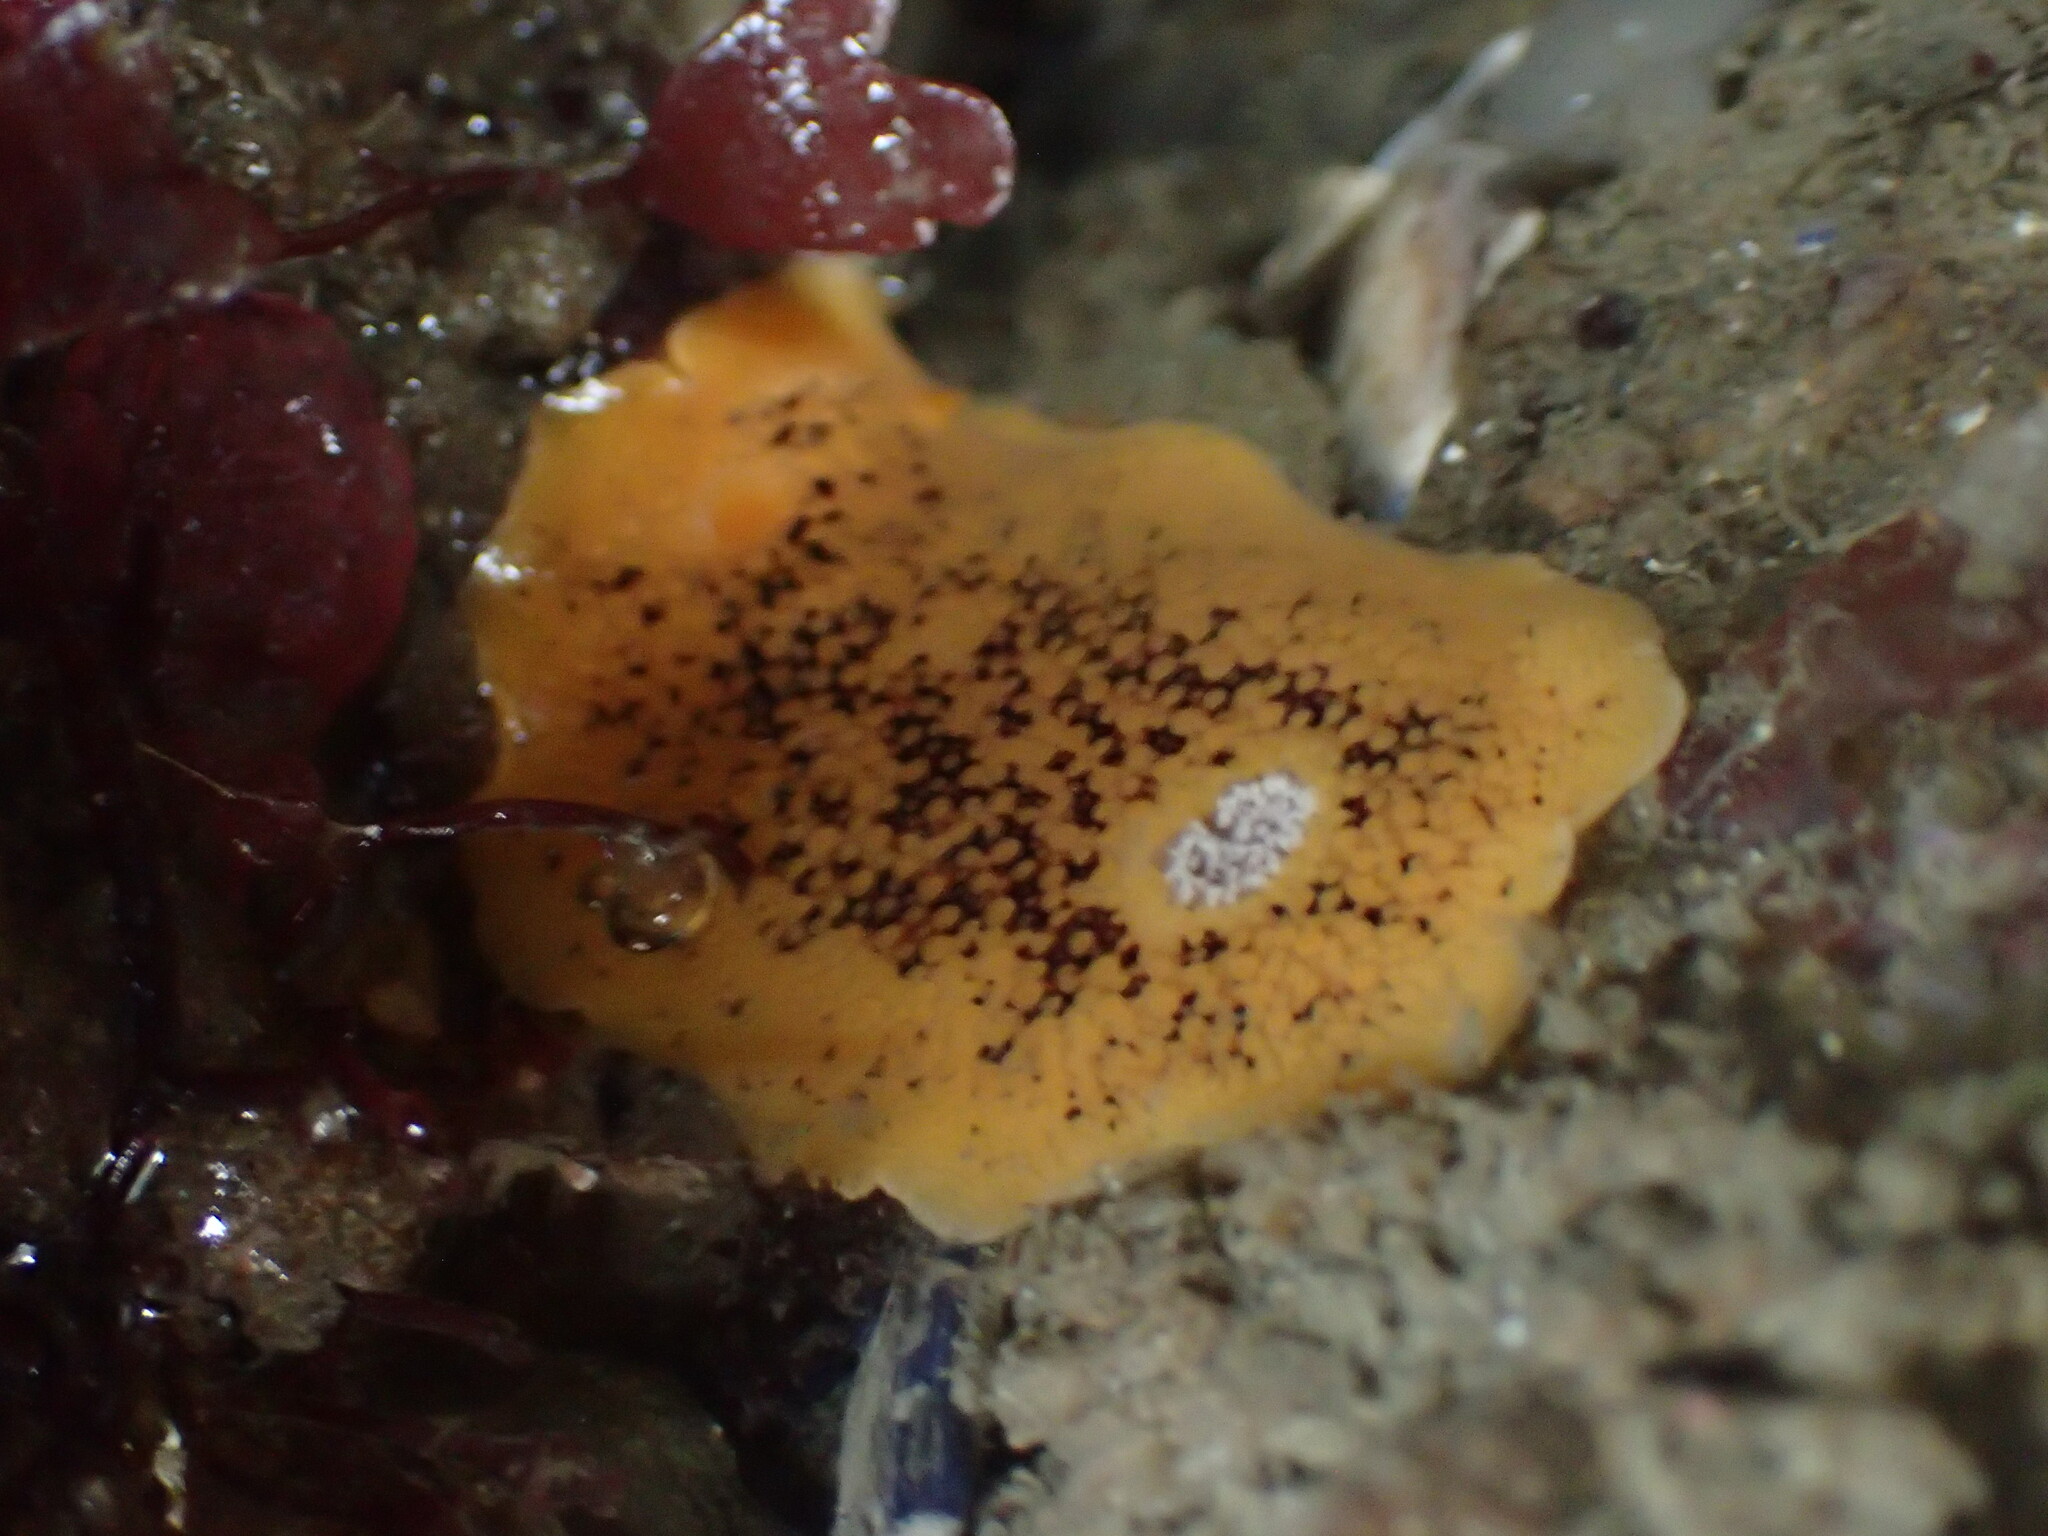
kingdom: Animalia
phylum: Mollusca
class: Gastropoda
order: Nudibranchia
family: Discodorididae
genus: Peltodoris
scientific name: Peltodoris nobilis
